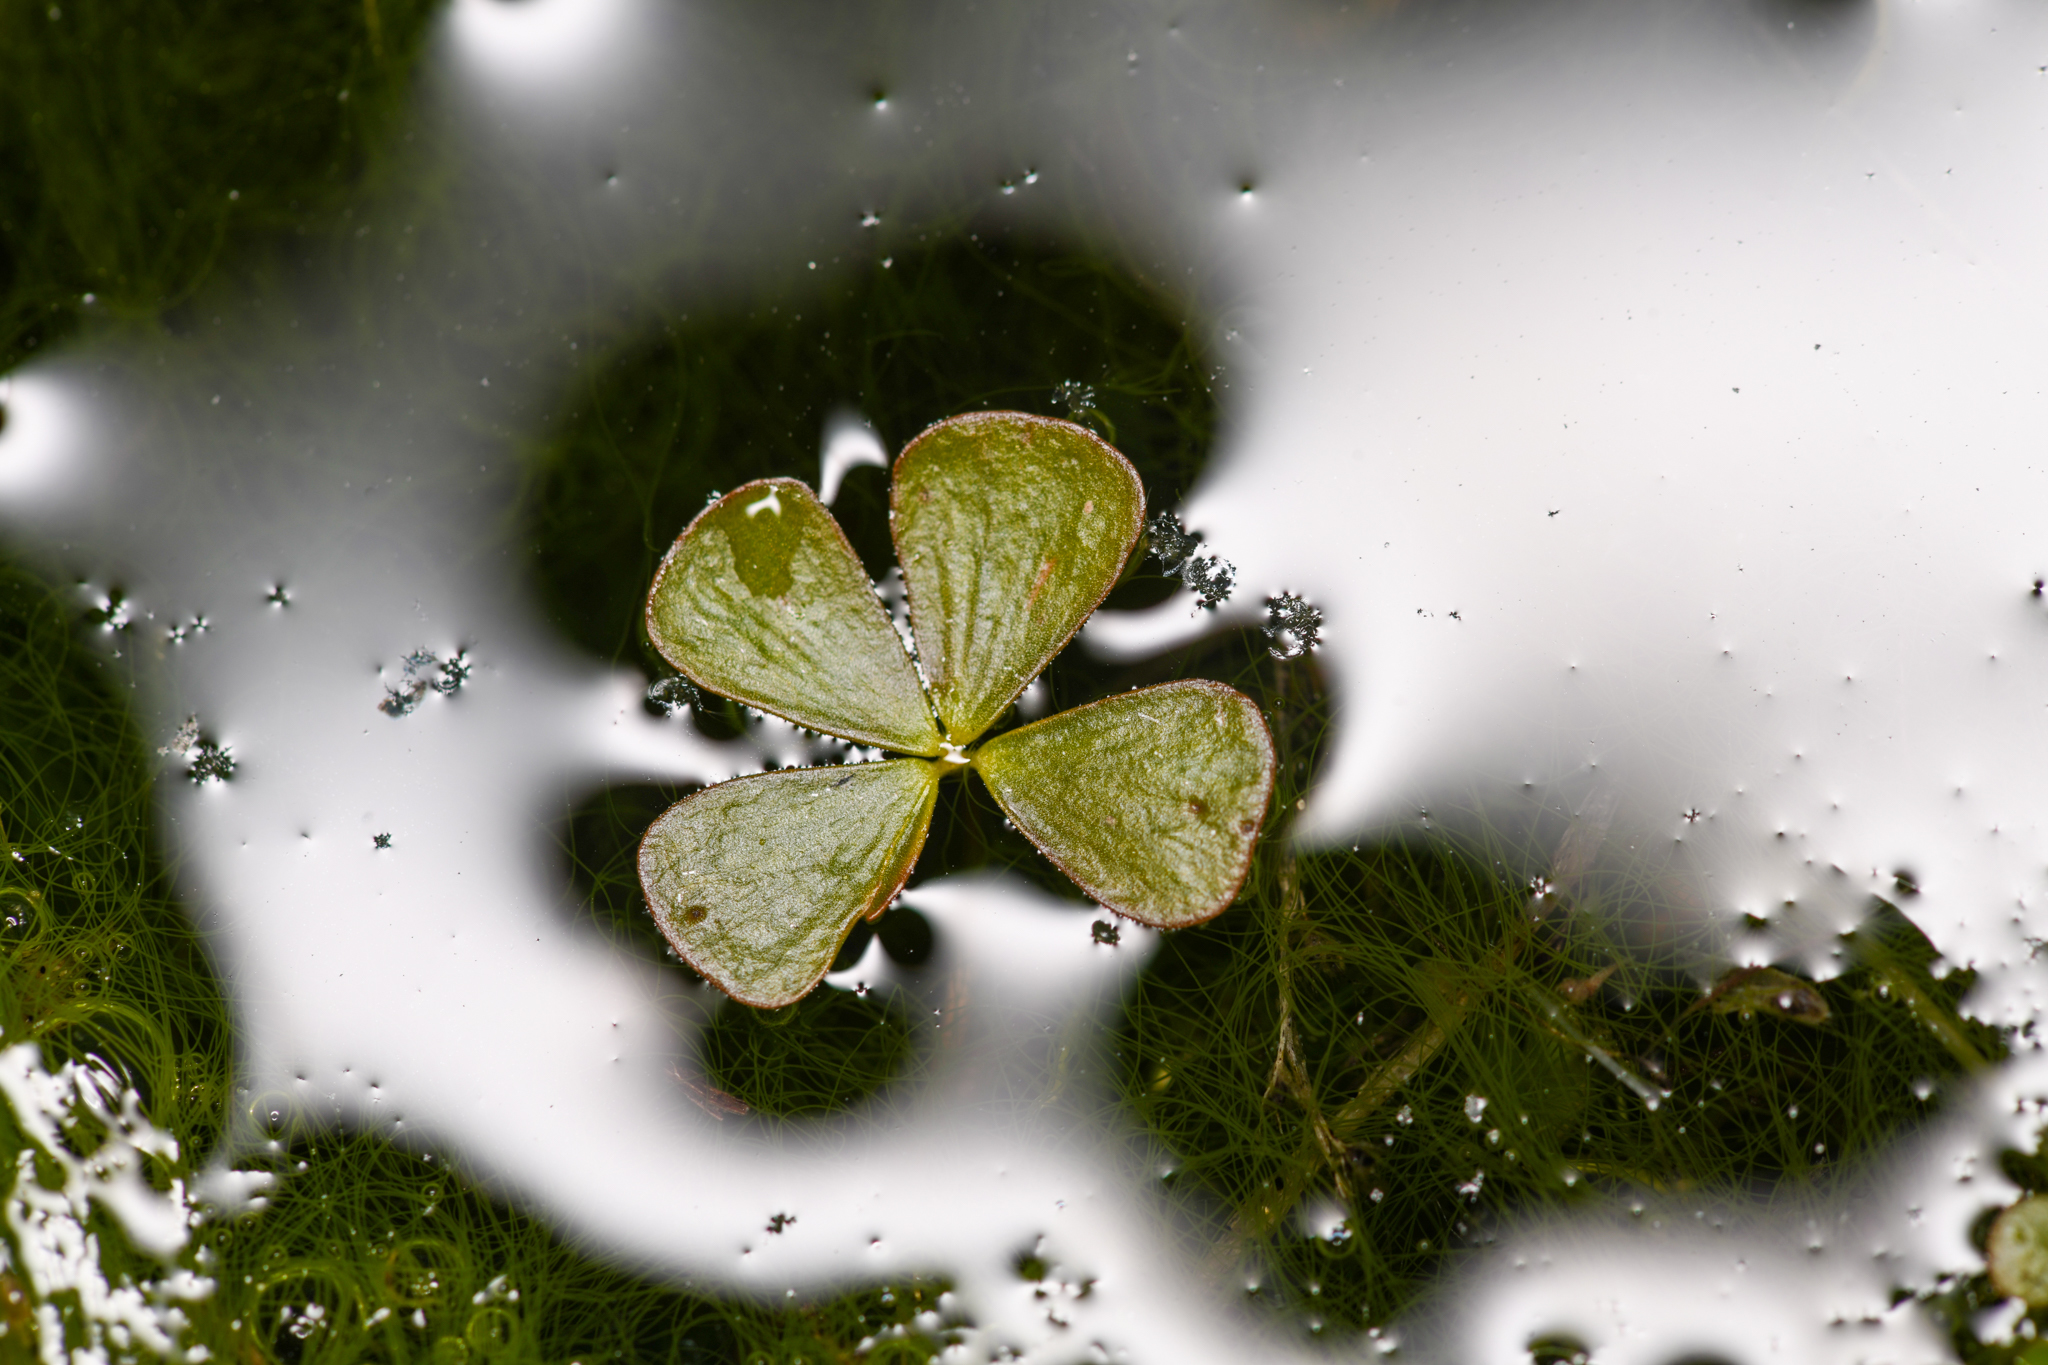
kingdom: Plantae
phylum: Tracheophyta
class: Polypodiopsida
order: Salviniales
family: Marsileaceae
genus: Marsilea
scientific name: Marsilea vestita
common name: Hooked-pepperwort
